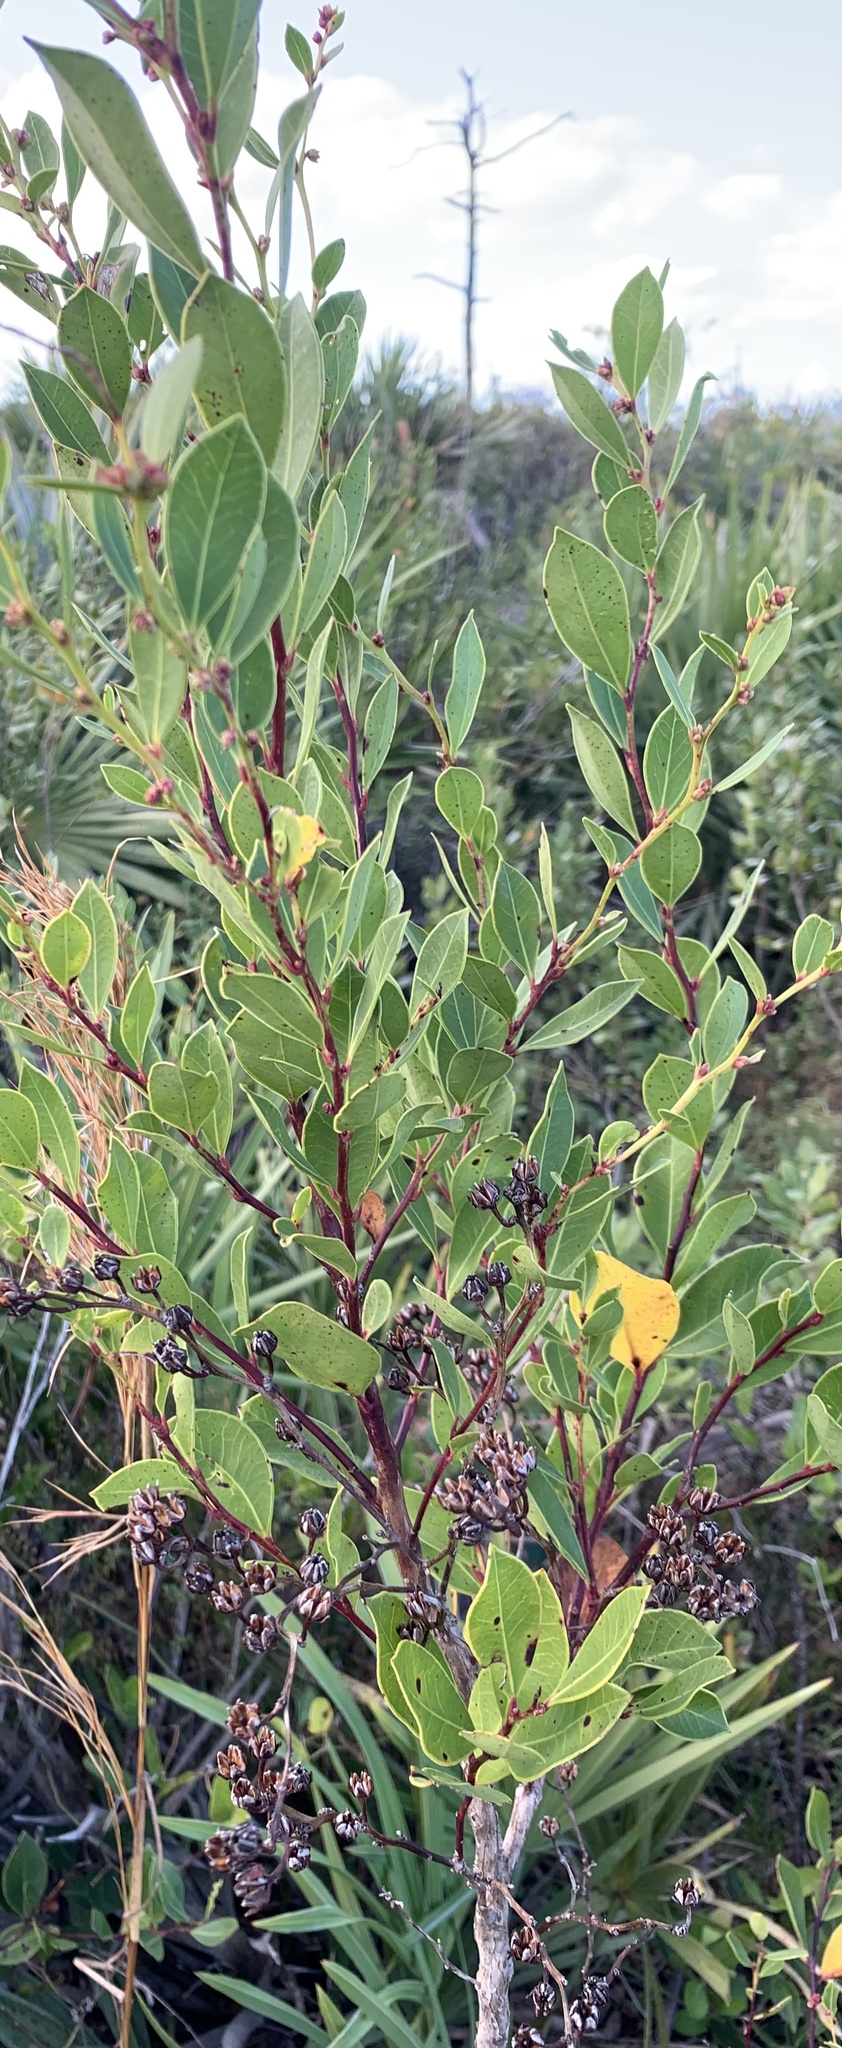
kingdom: Plantae
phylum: Tracheophyta
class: Magnoliopsida
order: Ericales
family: Ericaceae
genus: Lyonia
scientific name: Lyonia lucida
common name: Fetterbush
